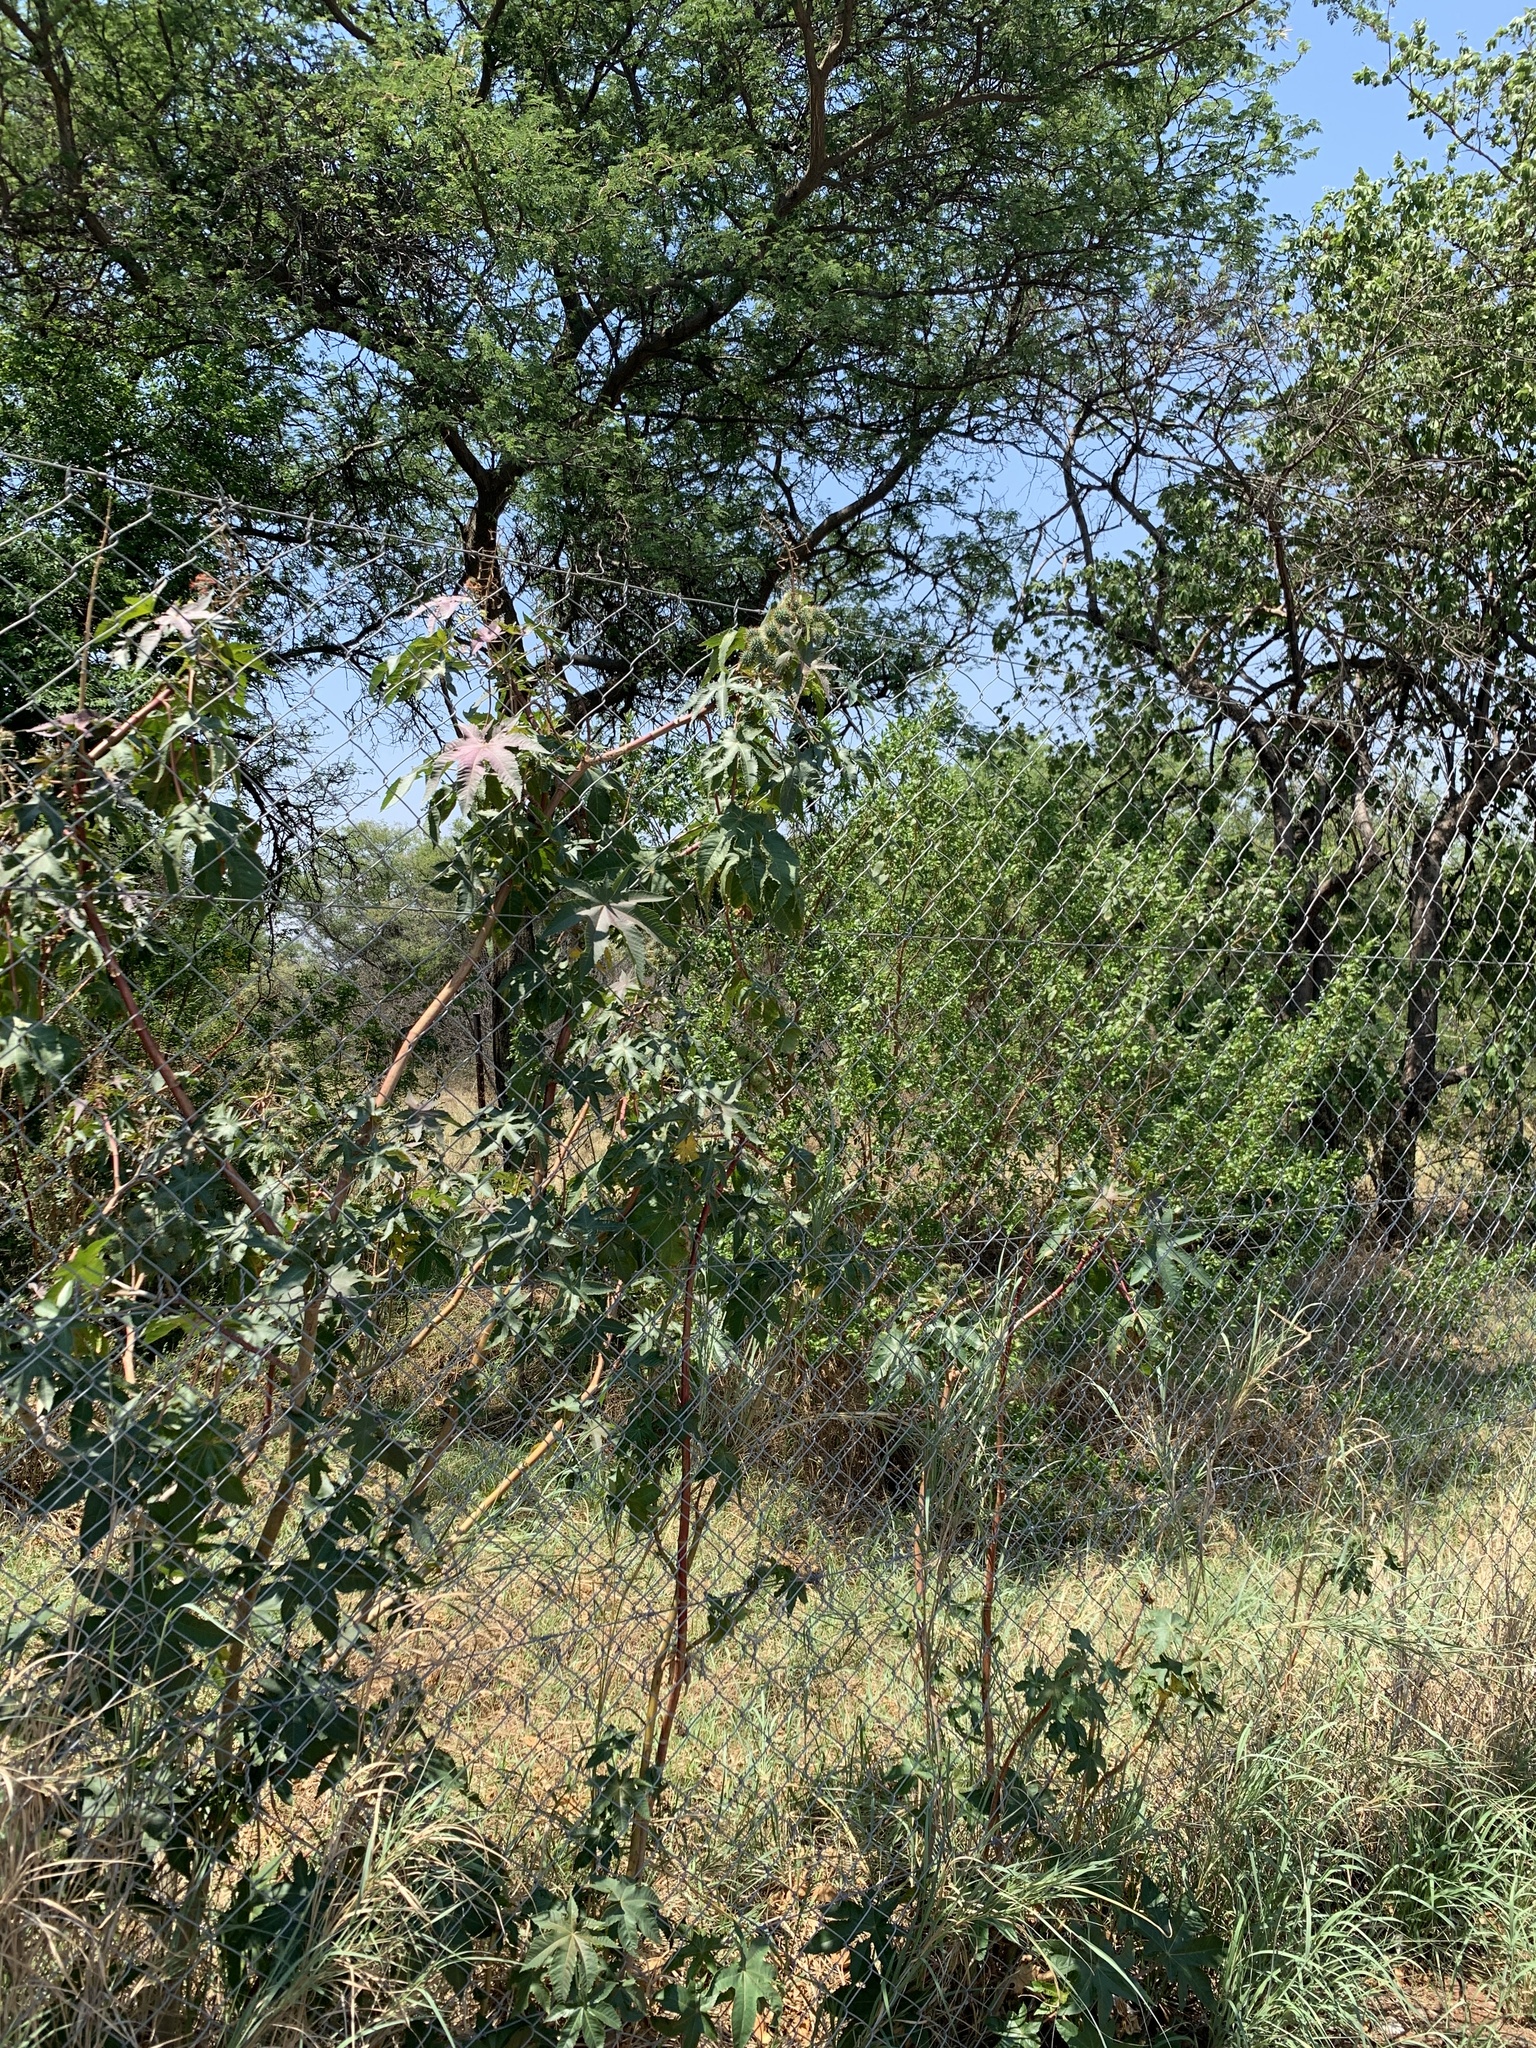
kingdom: Plantae
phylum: Tracheophyta
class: Magnoliopsida
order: Malpighiales
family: Euphorbiaceae
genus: Ricinus
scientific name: Ricinus communis
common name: Castor-oil-plant
